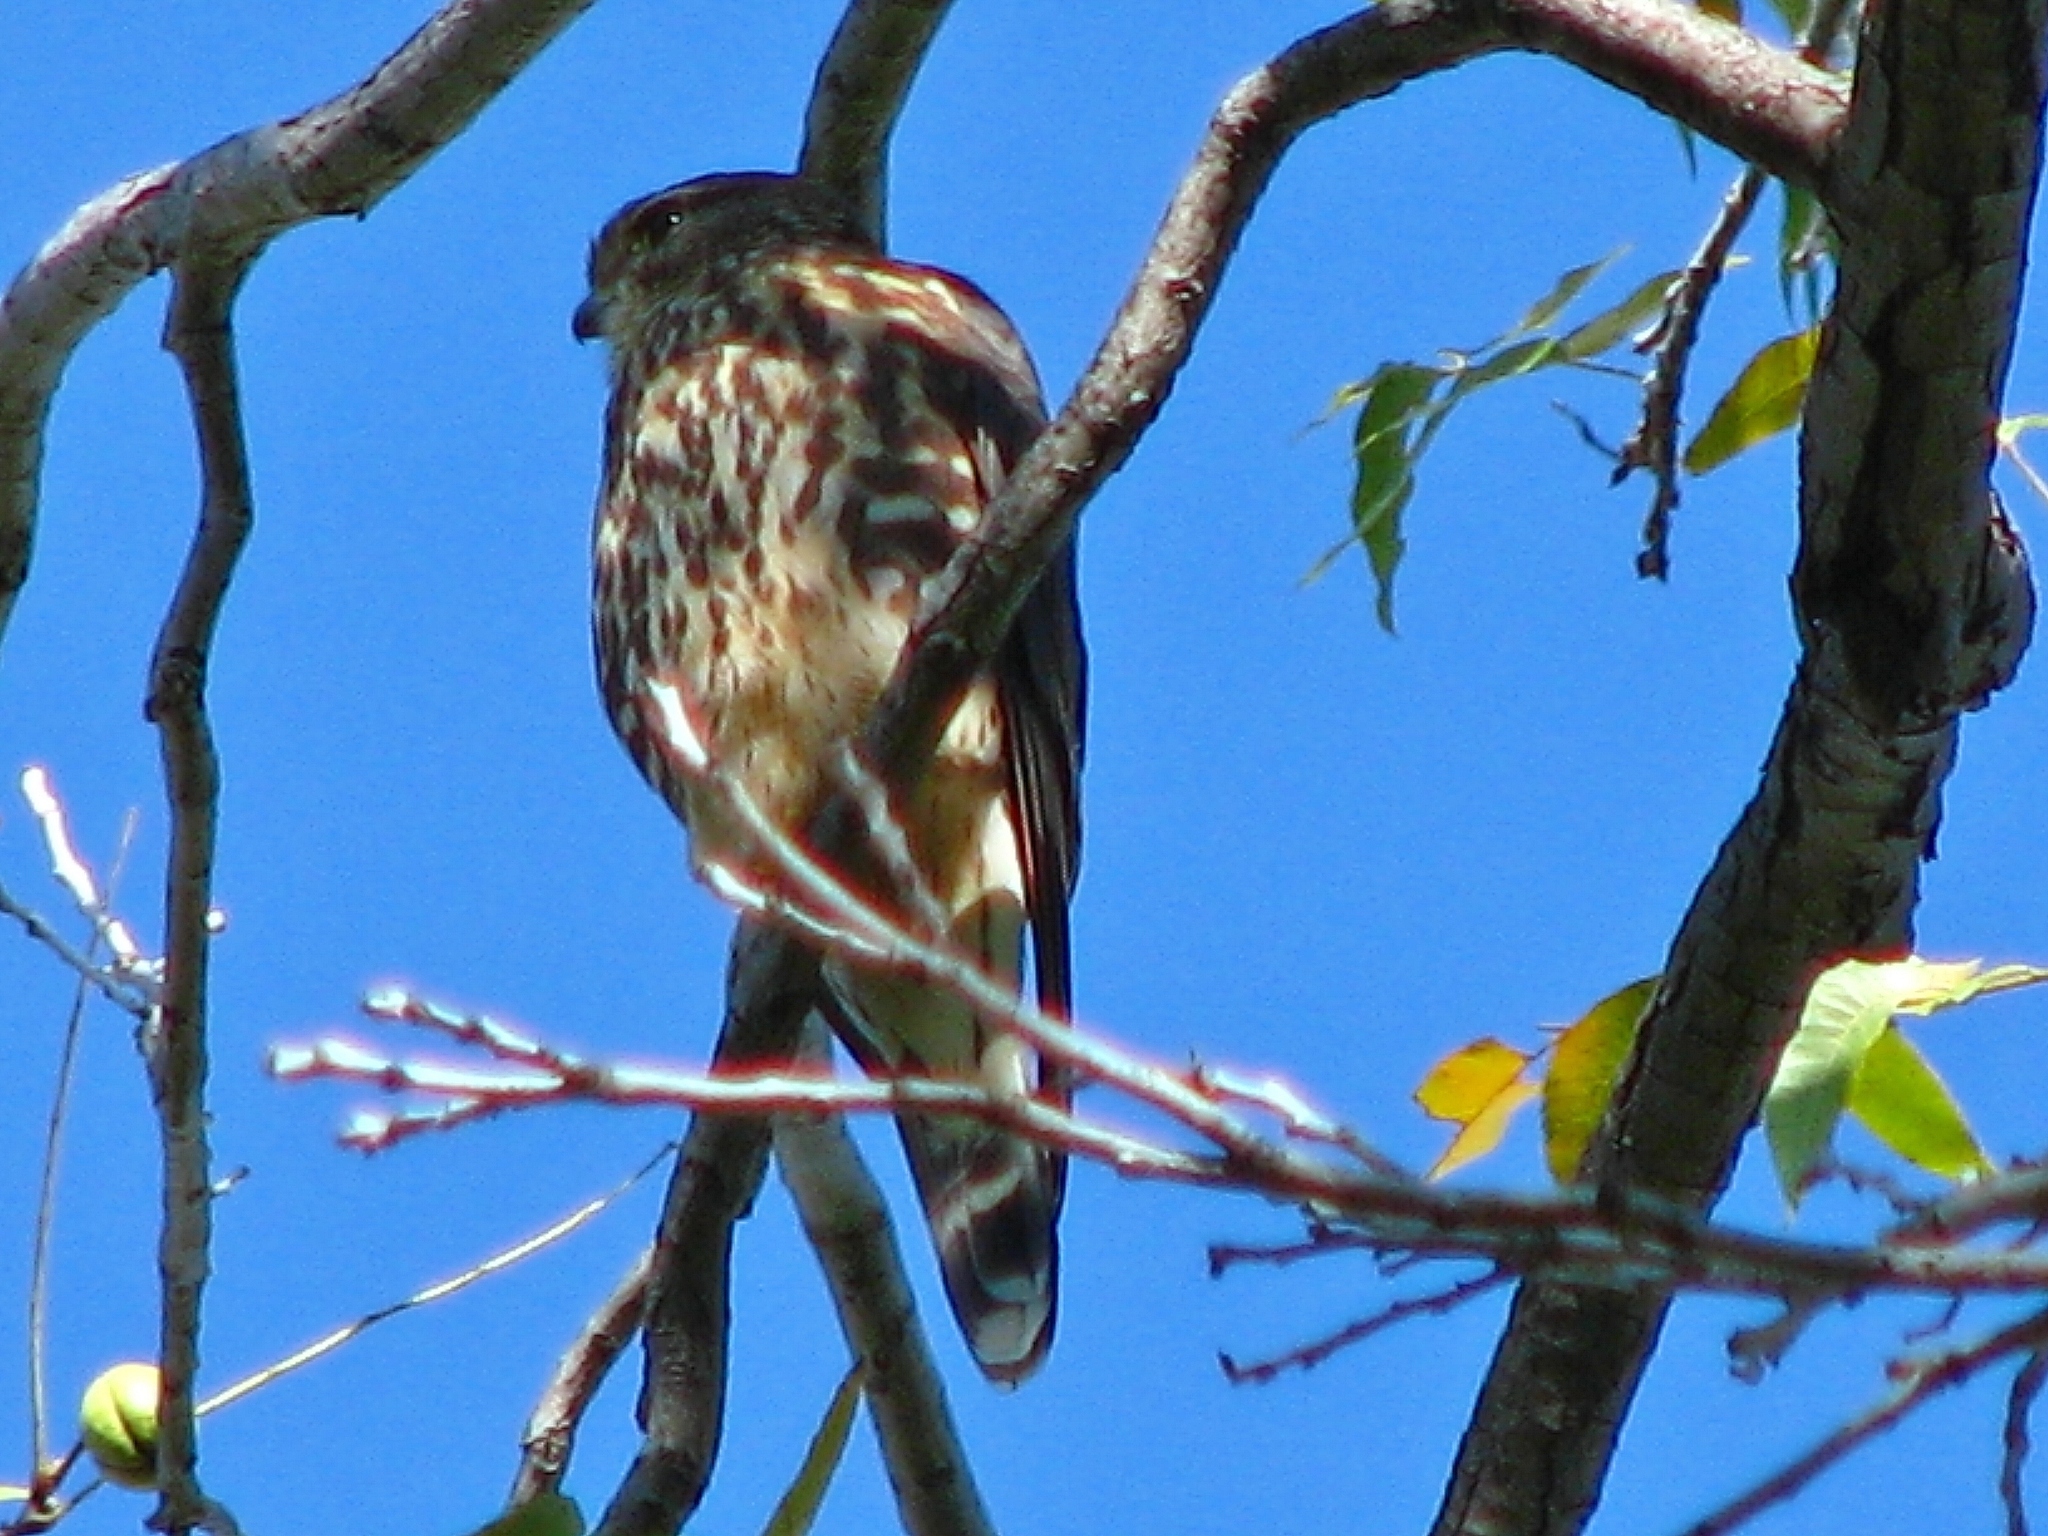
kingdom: Animalia
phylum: Chordata
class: Aves
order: Falconiformes
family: Falconidae
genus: Falco
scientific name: Falco columbarius
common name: Merlin
